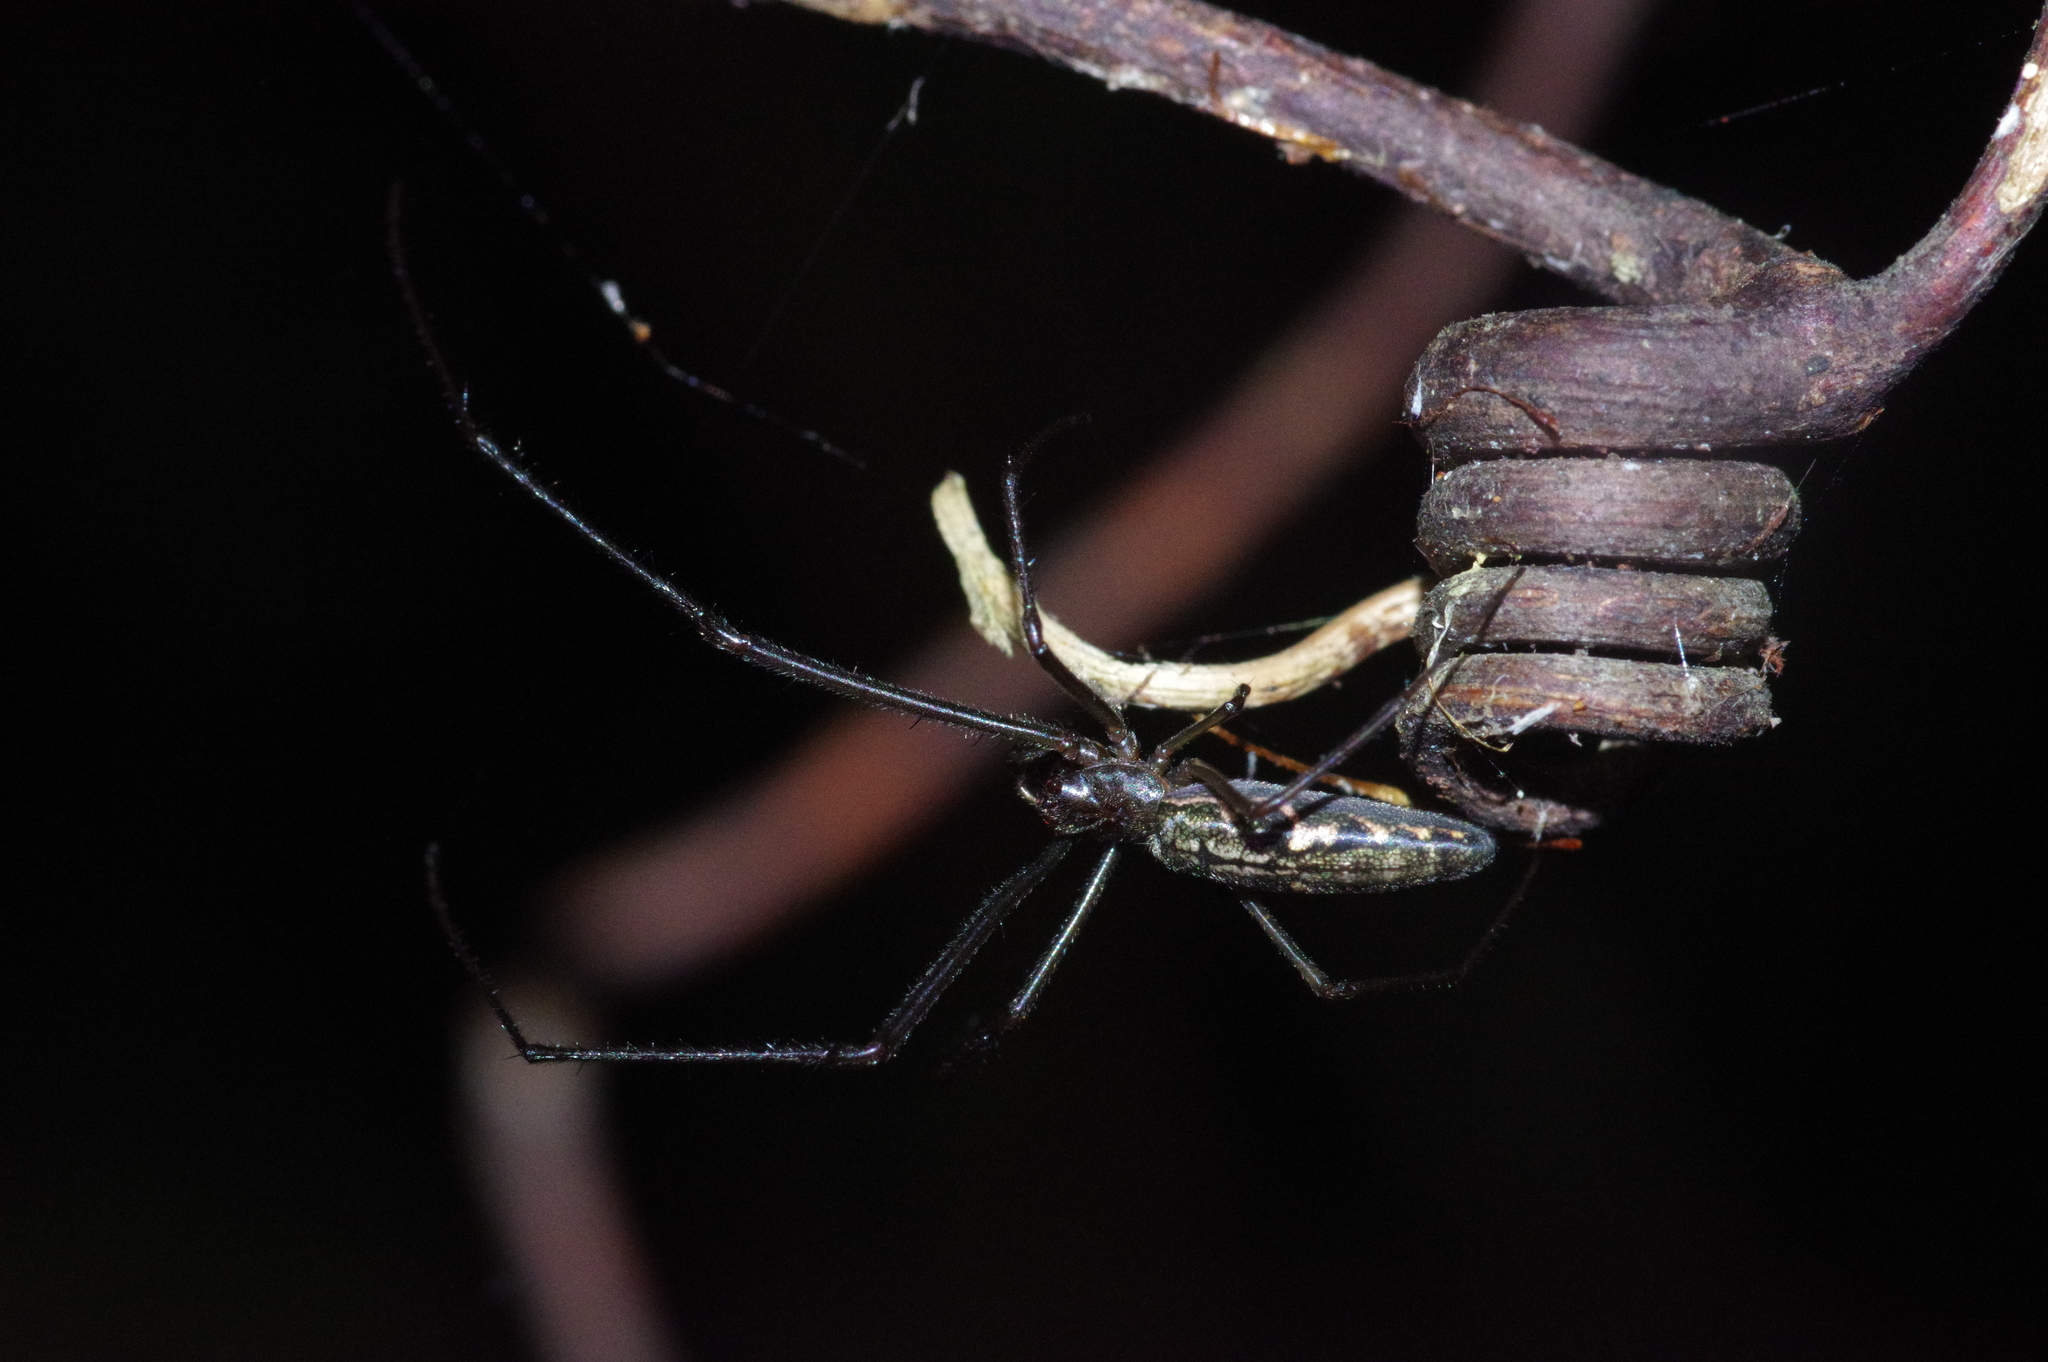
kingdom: Animalia
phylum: Arthropoda
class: Arachnida
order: Araneae
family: Tetragnathidae
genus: Tetragnatha
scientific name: Tetragnatha makiharai
